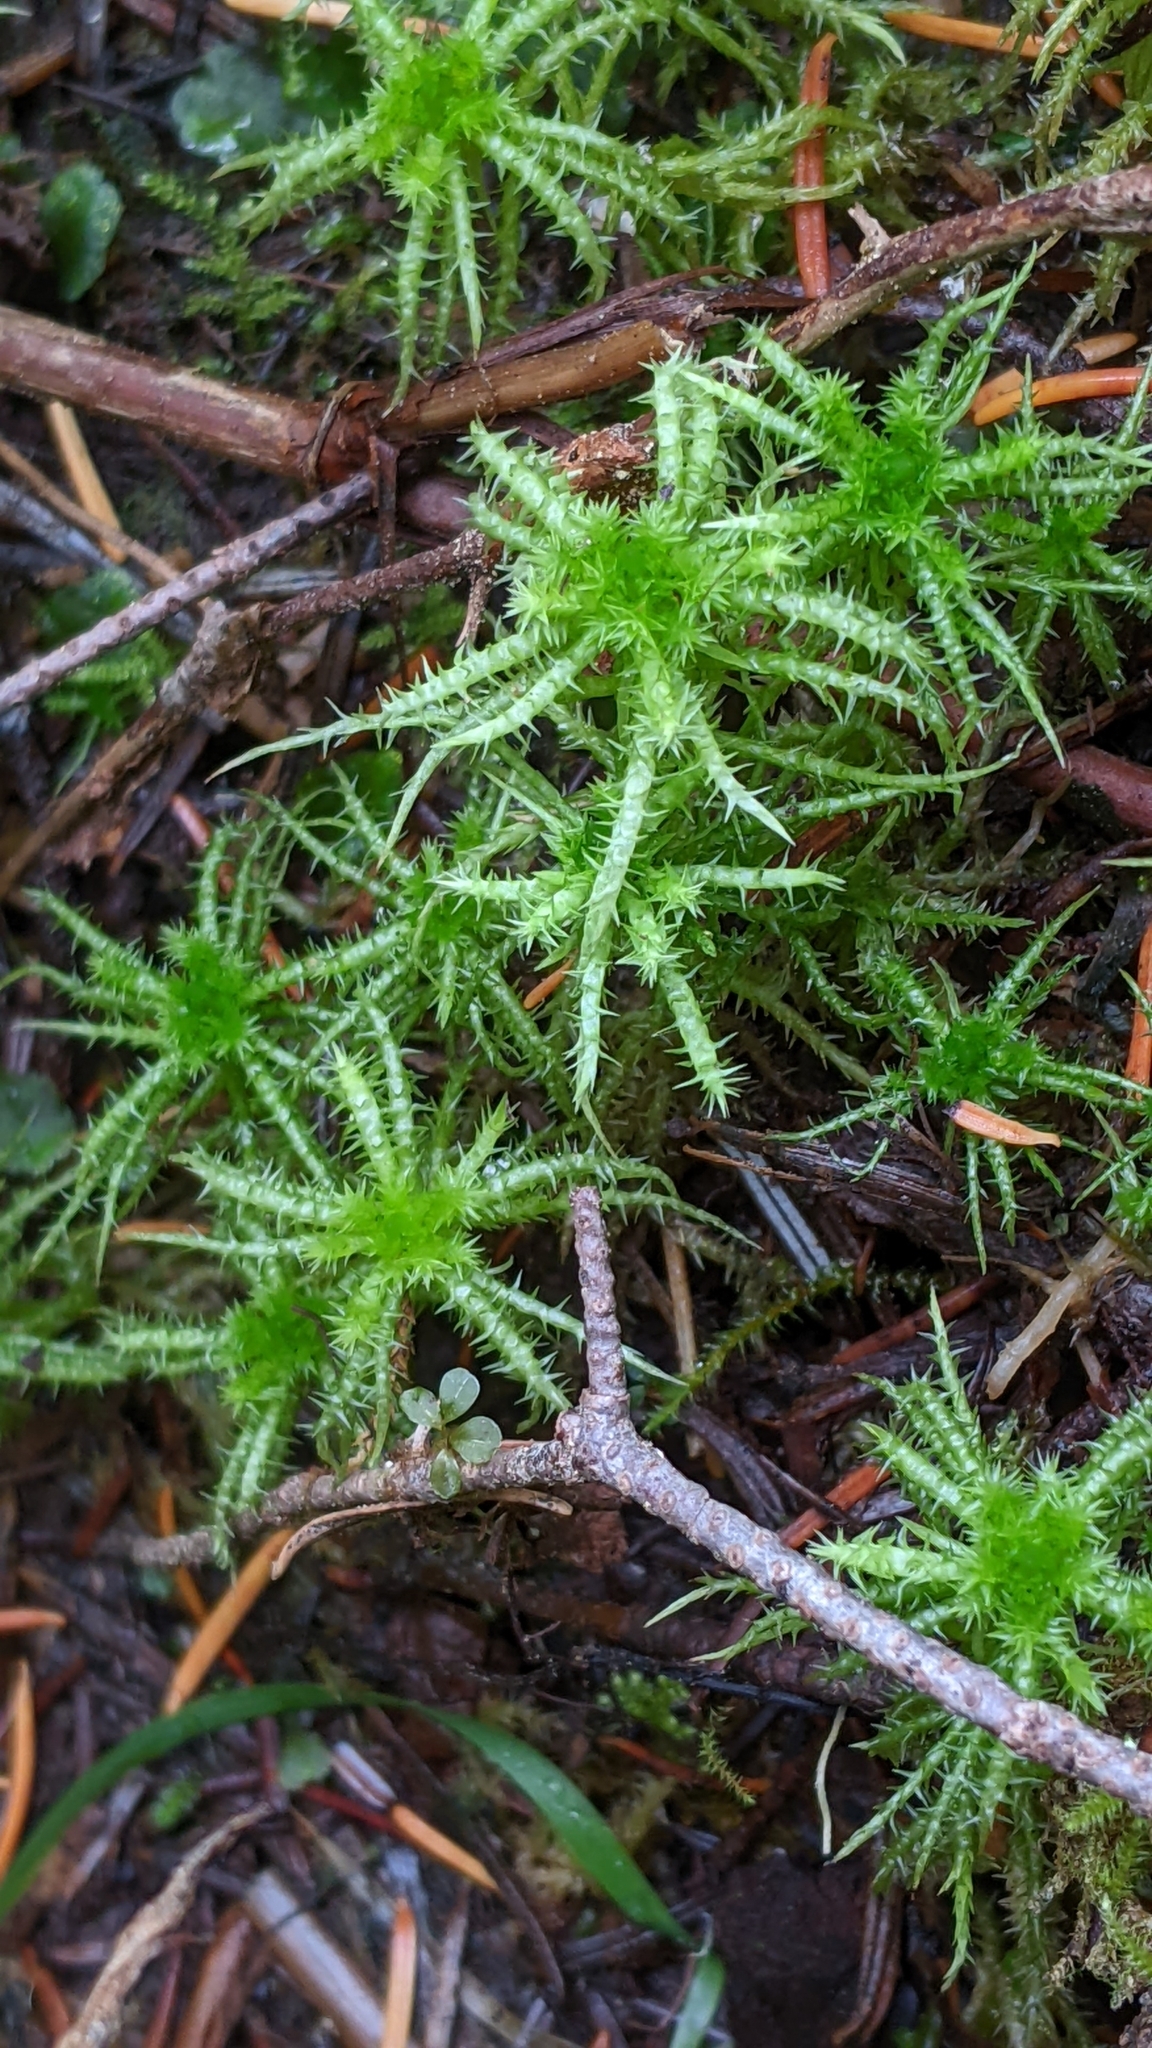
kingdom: Plantae
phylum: Bryophyta
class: Sphagnopsida
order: Sphagnales
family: Sphagnaceae
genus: Sphagnum
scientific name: Sphagnum squarrosum
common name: Shaggy peat moss
